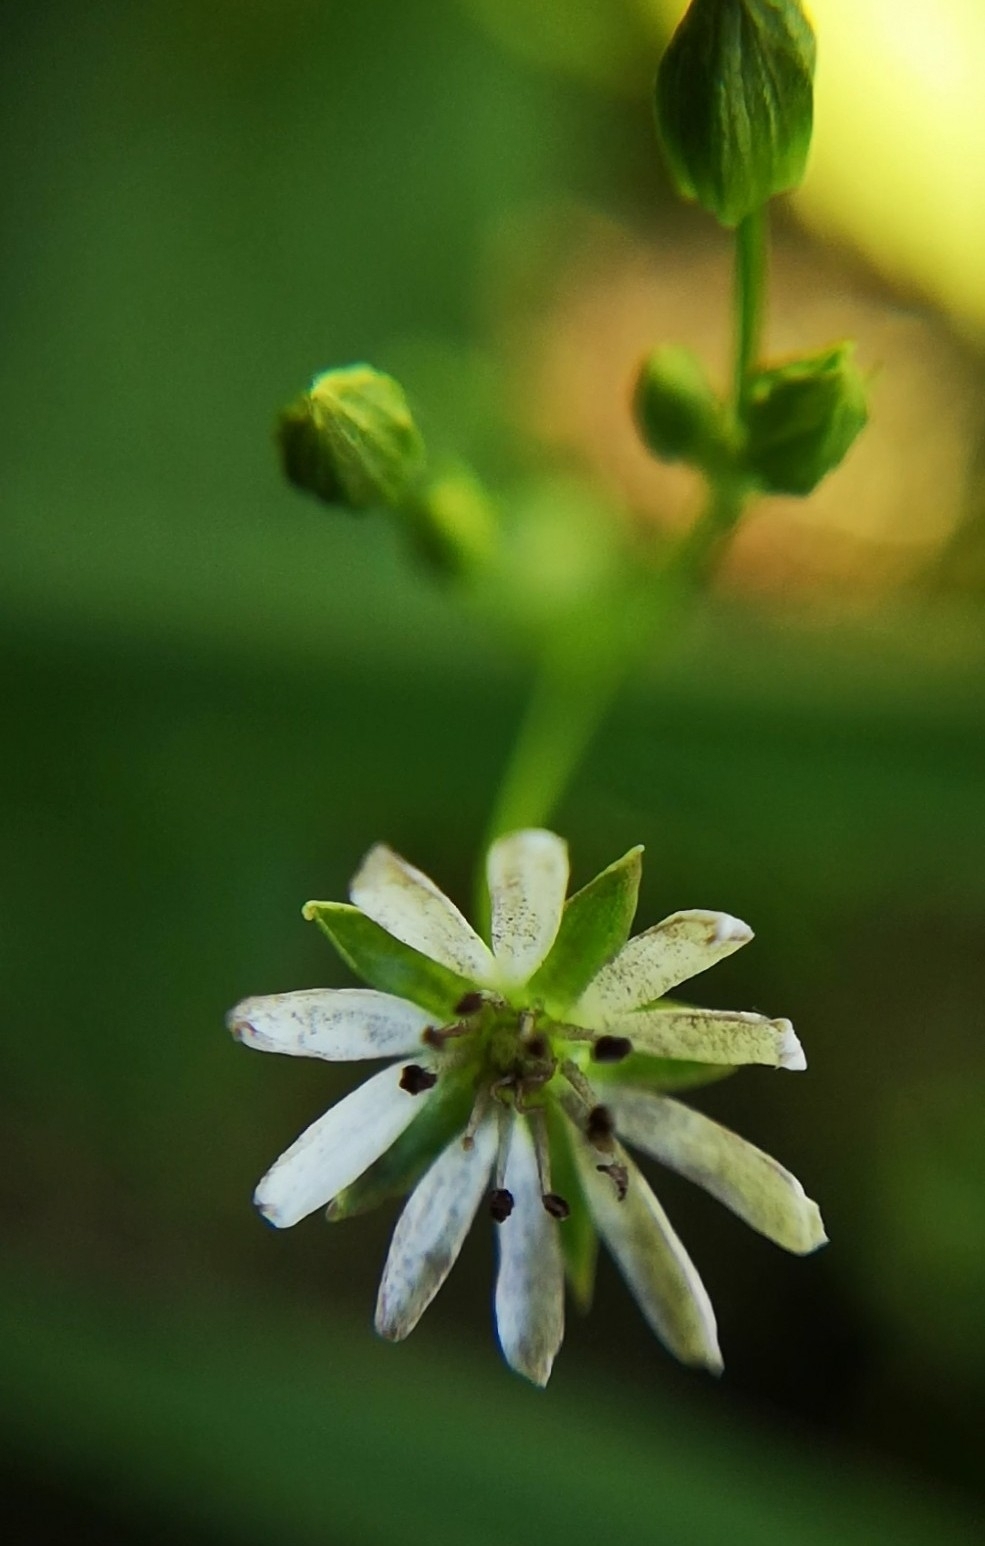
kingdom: Plantae
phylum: Tracheophyta
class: Magnoliopsida
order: Caryophyllales
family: Caryophyllaceae
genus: Stellaria
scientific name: Stellaria graminea
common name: Grass-like starwort
